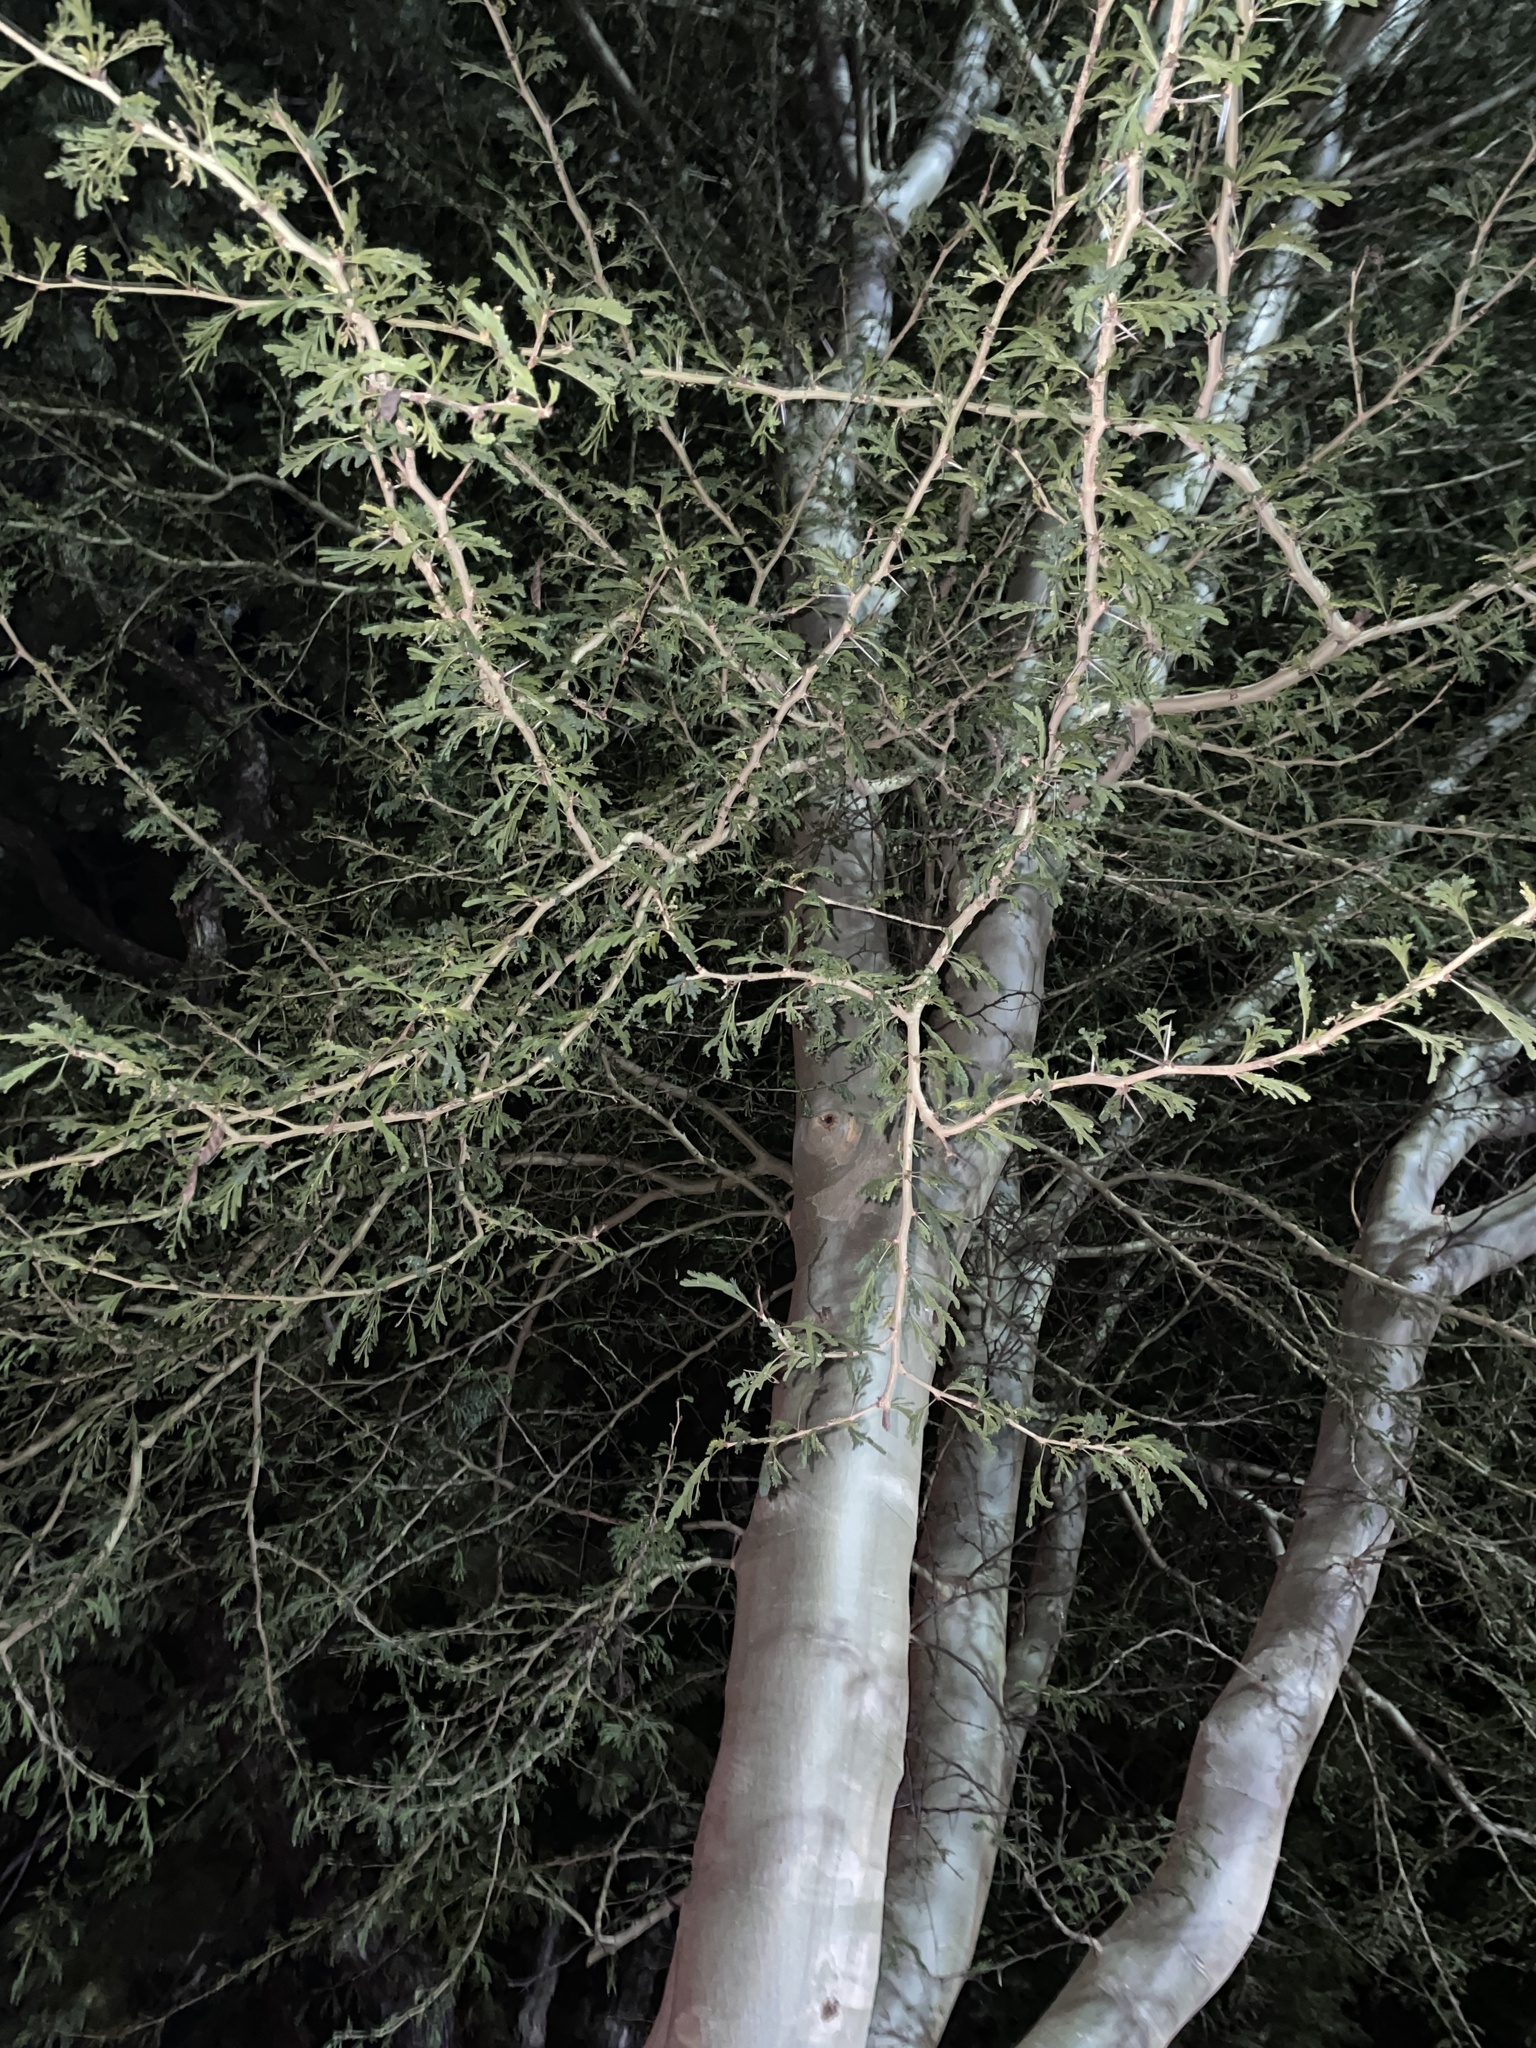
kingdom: Plantae
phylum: Tracheophyta
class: Magnoliopsida
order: Fabales
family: Fabaceae
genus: Vachellia
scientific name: Vachellia xanthophloea
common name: Fever tree
